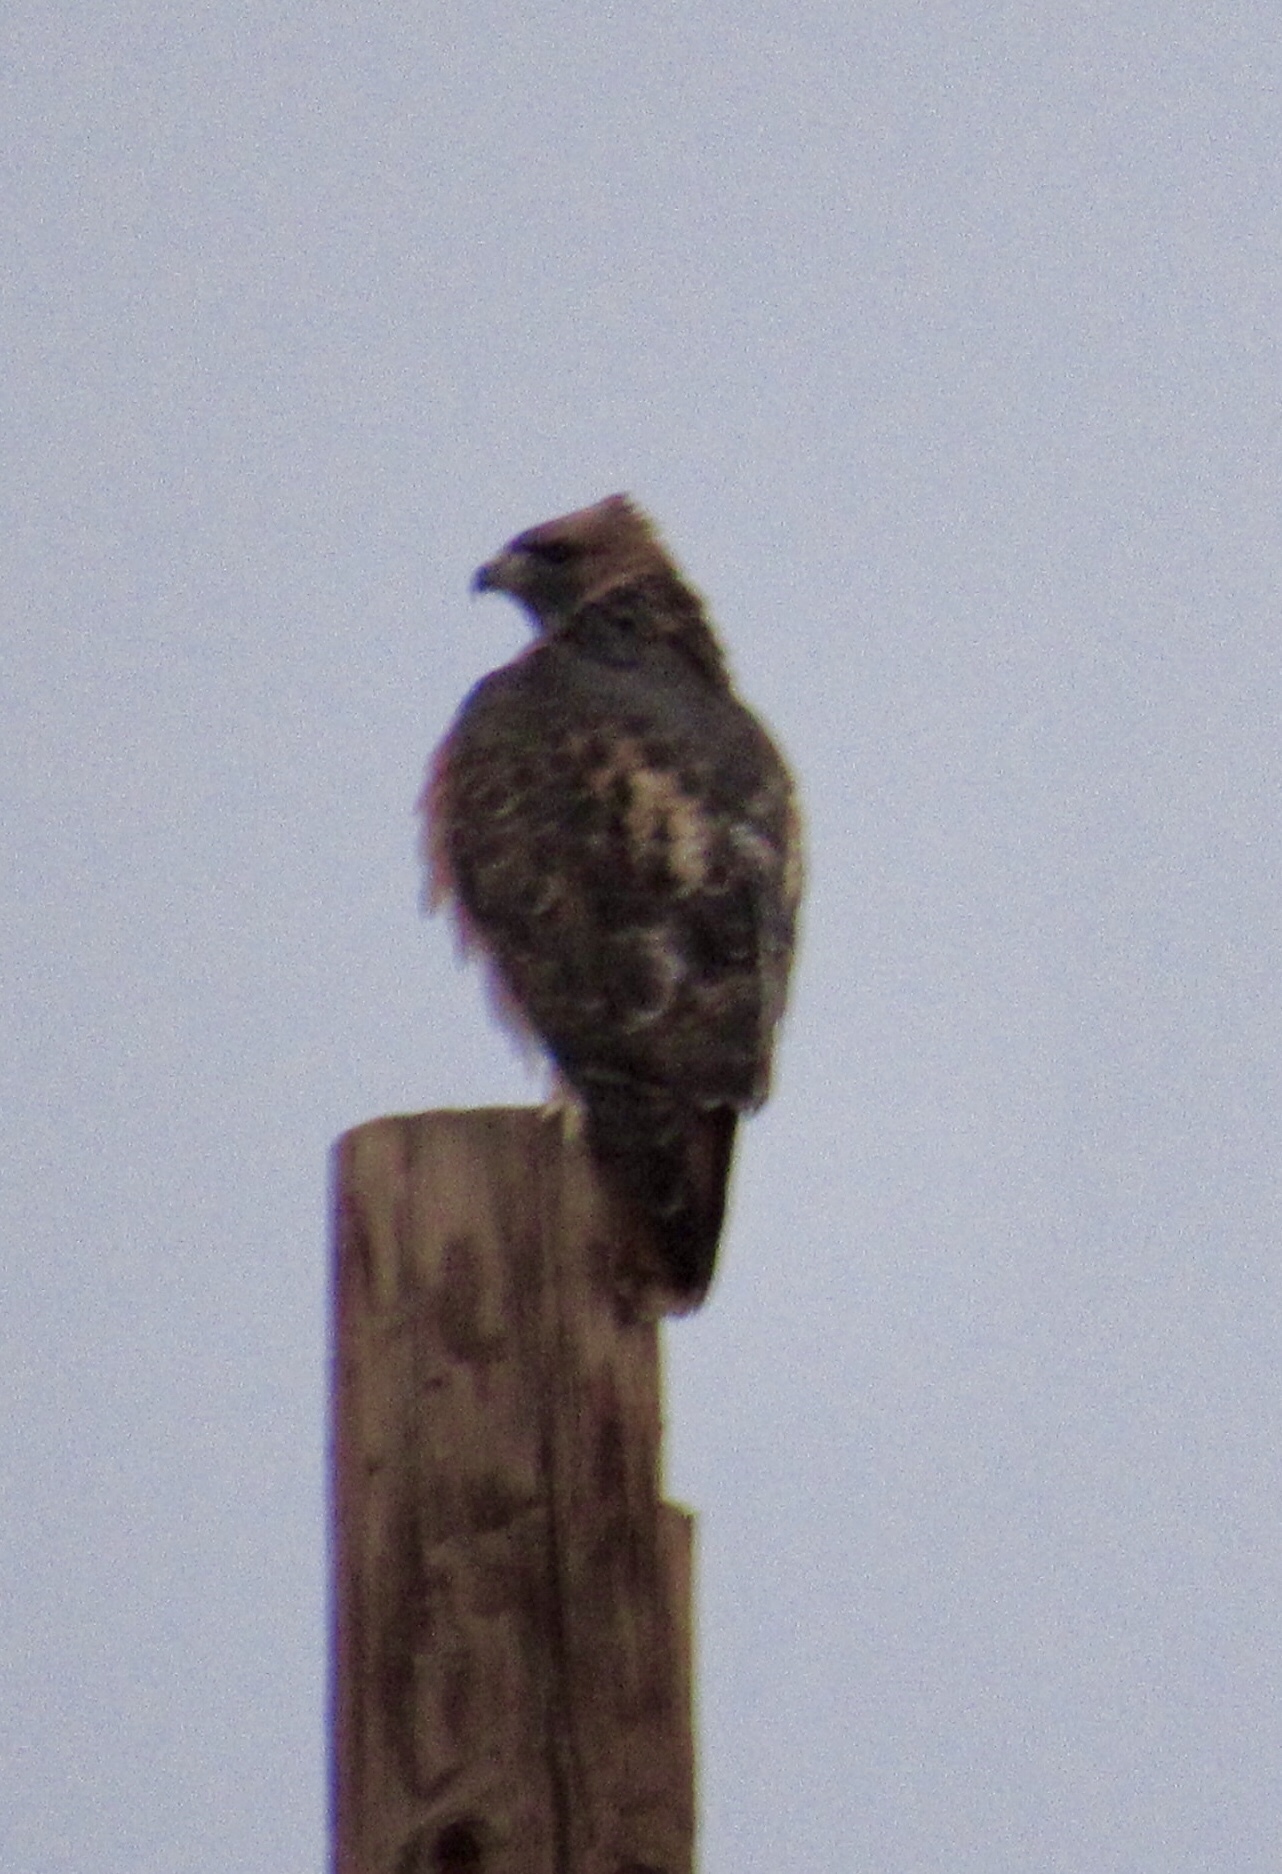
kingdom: Animalia
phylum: Chordata
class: Aves
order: Accipitriformes
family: Accipitridae
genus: Buteo
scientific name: Buteo jamaicensis
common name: Red-tailed hawk
